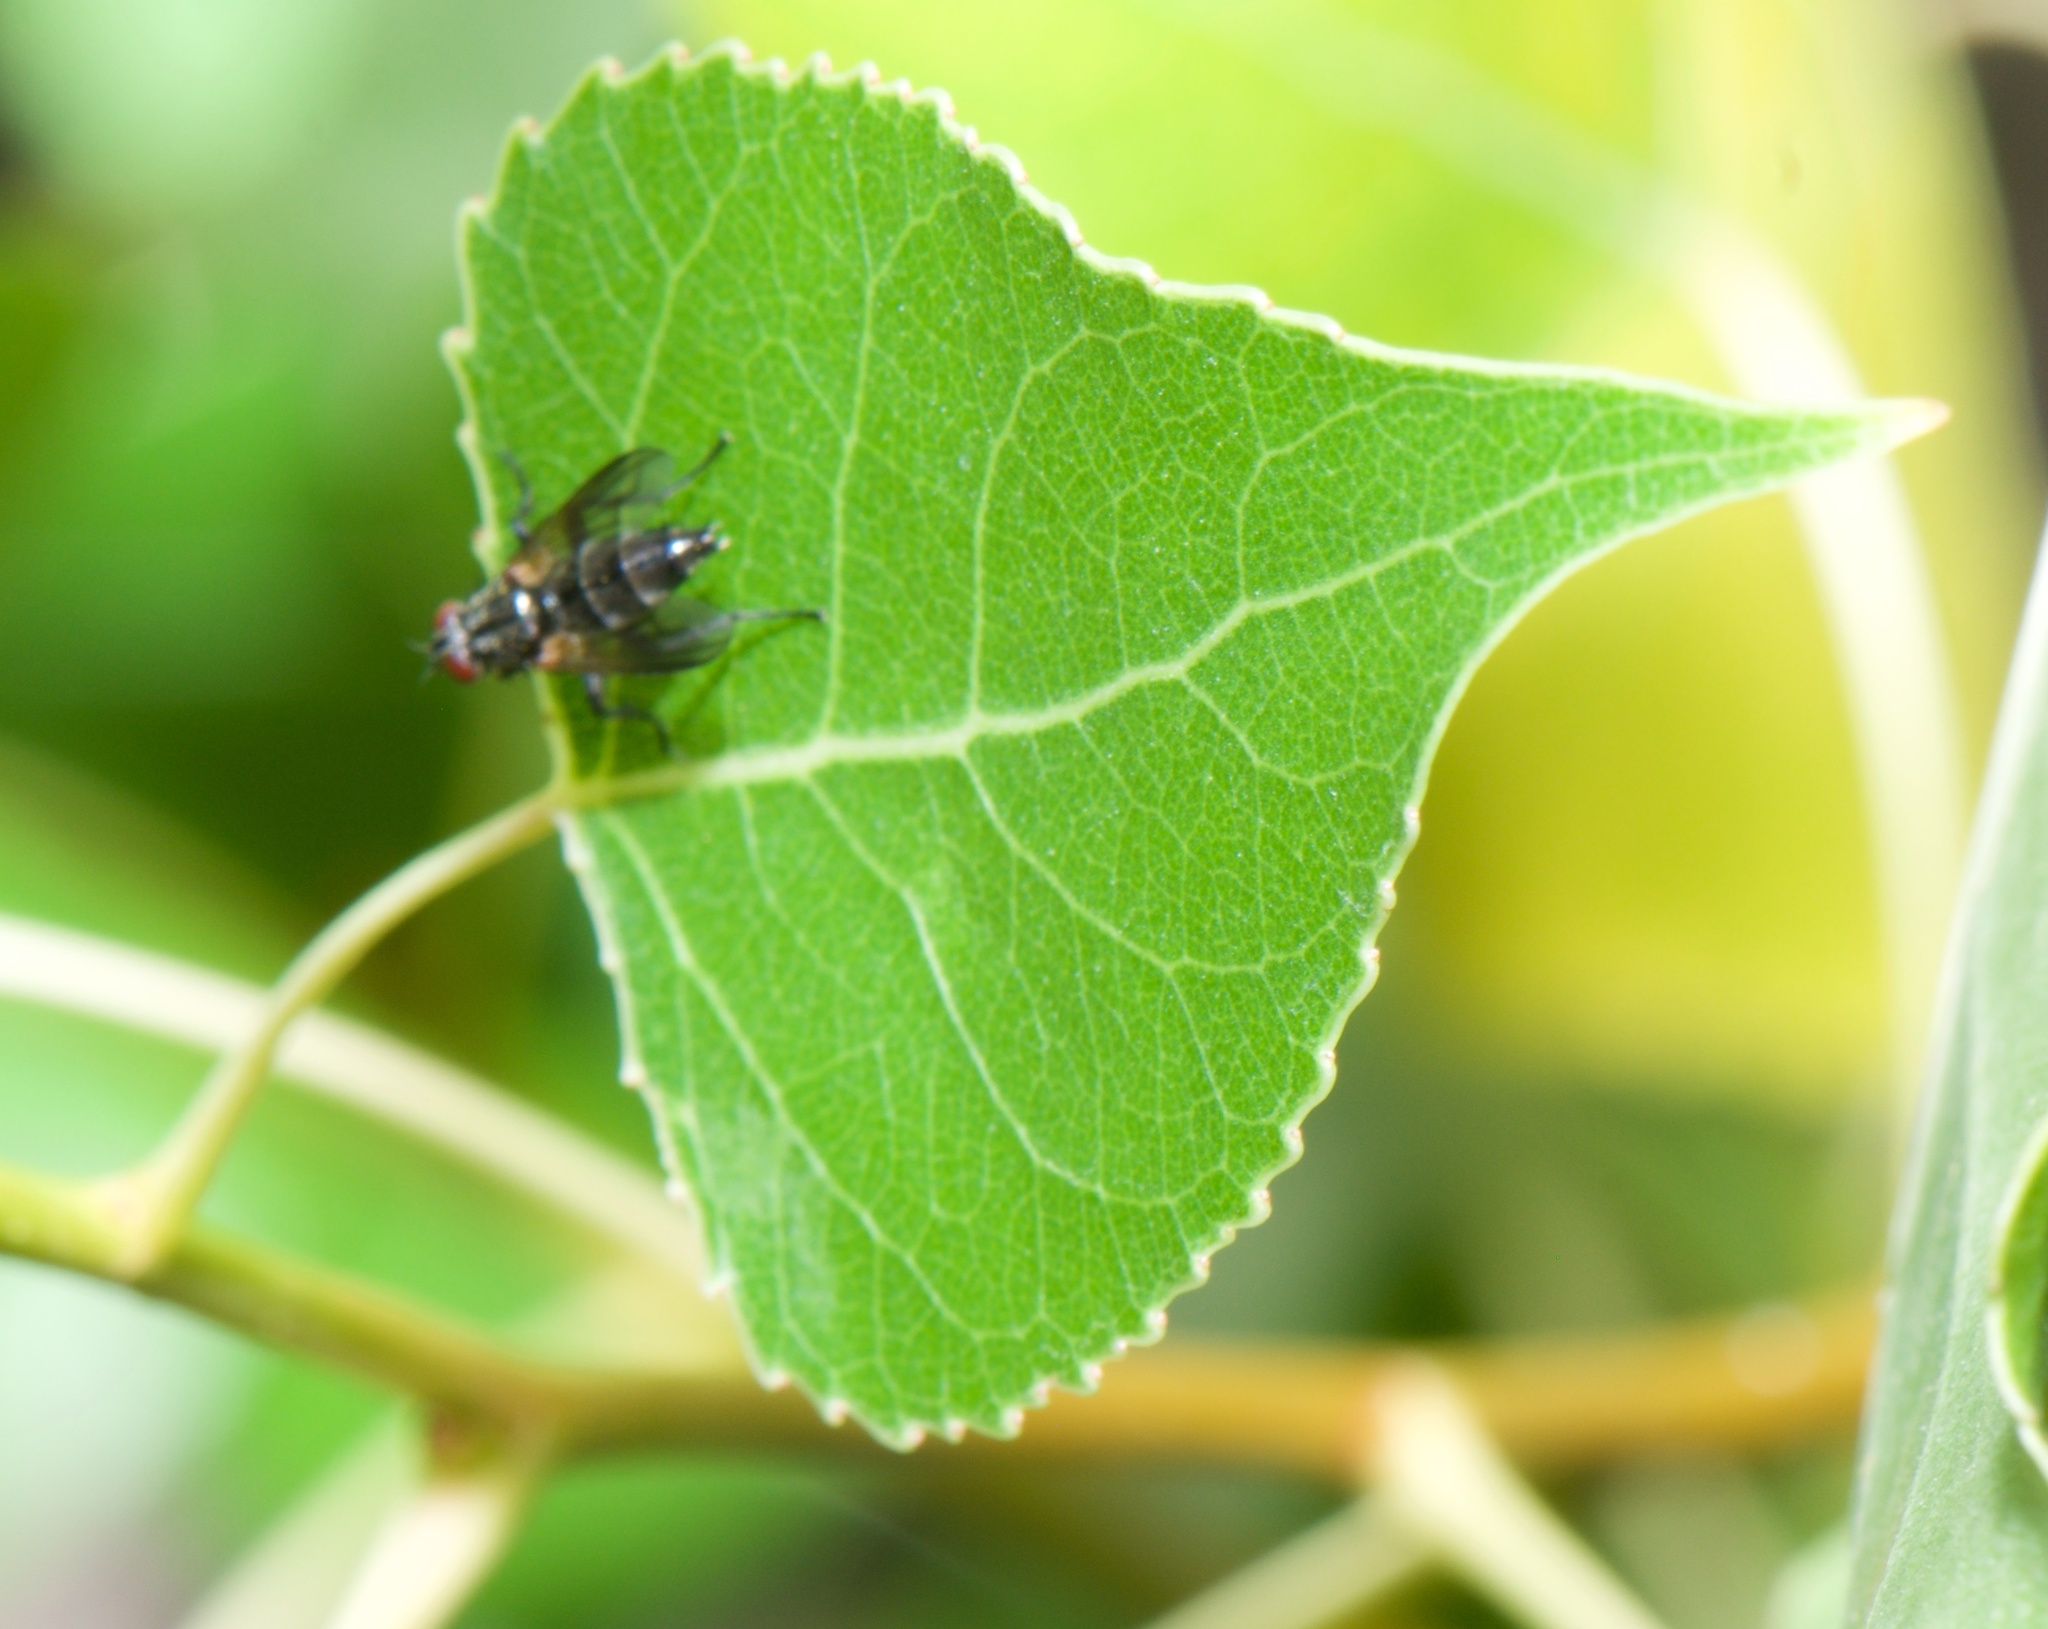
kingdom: Animalia
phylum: Arthropoda
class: Insecta
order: Diptera
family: Calliphoridae
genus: Stevenia
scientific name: Stevenia deceptoria
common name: Grizzled woodlouse-fly
